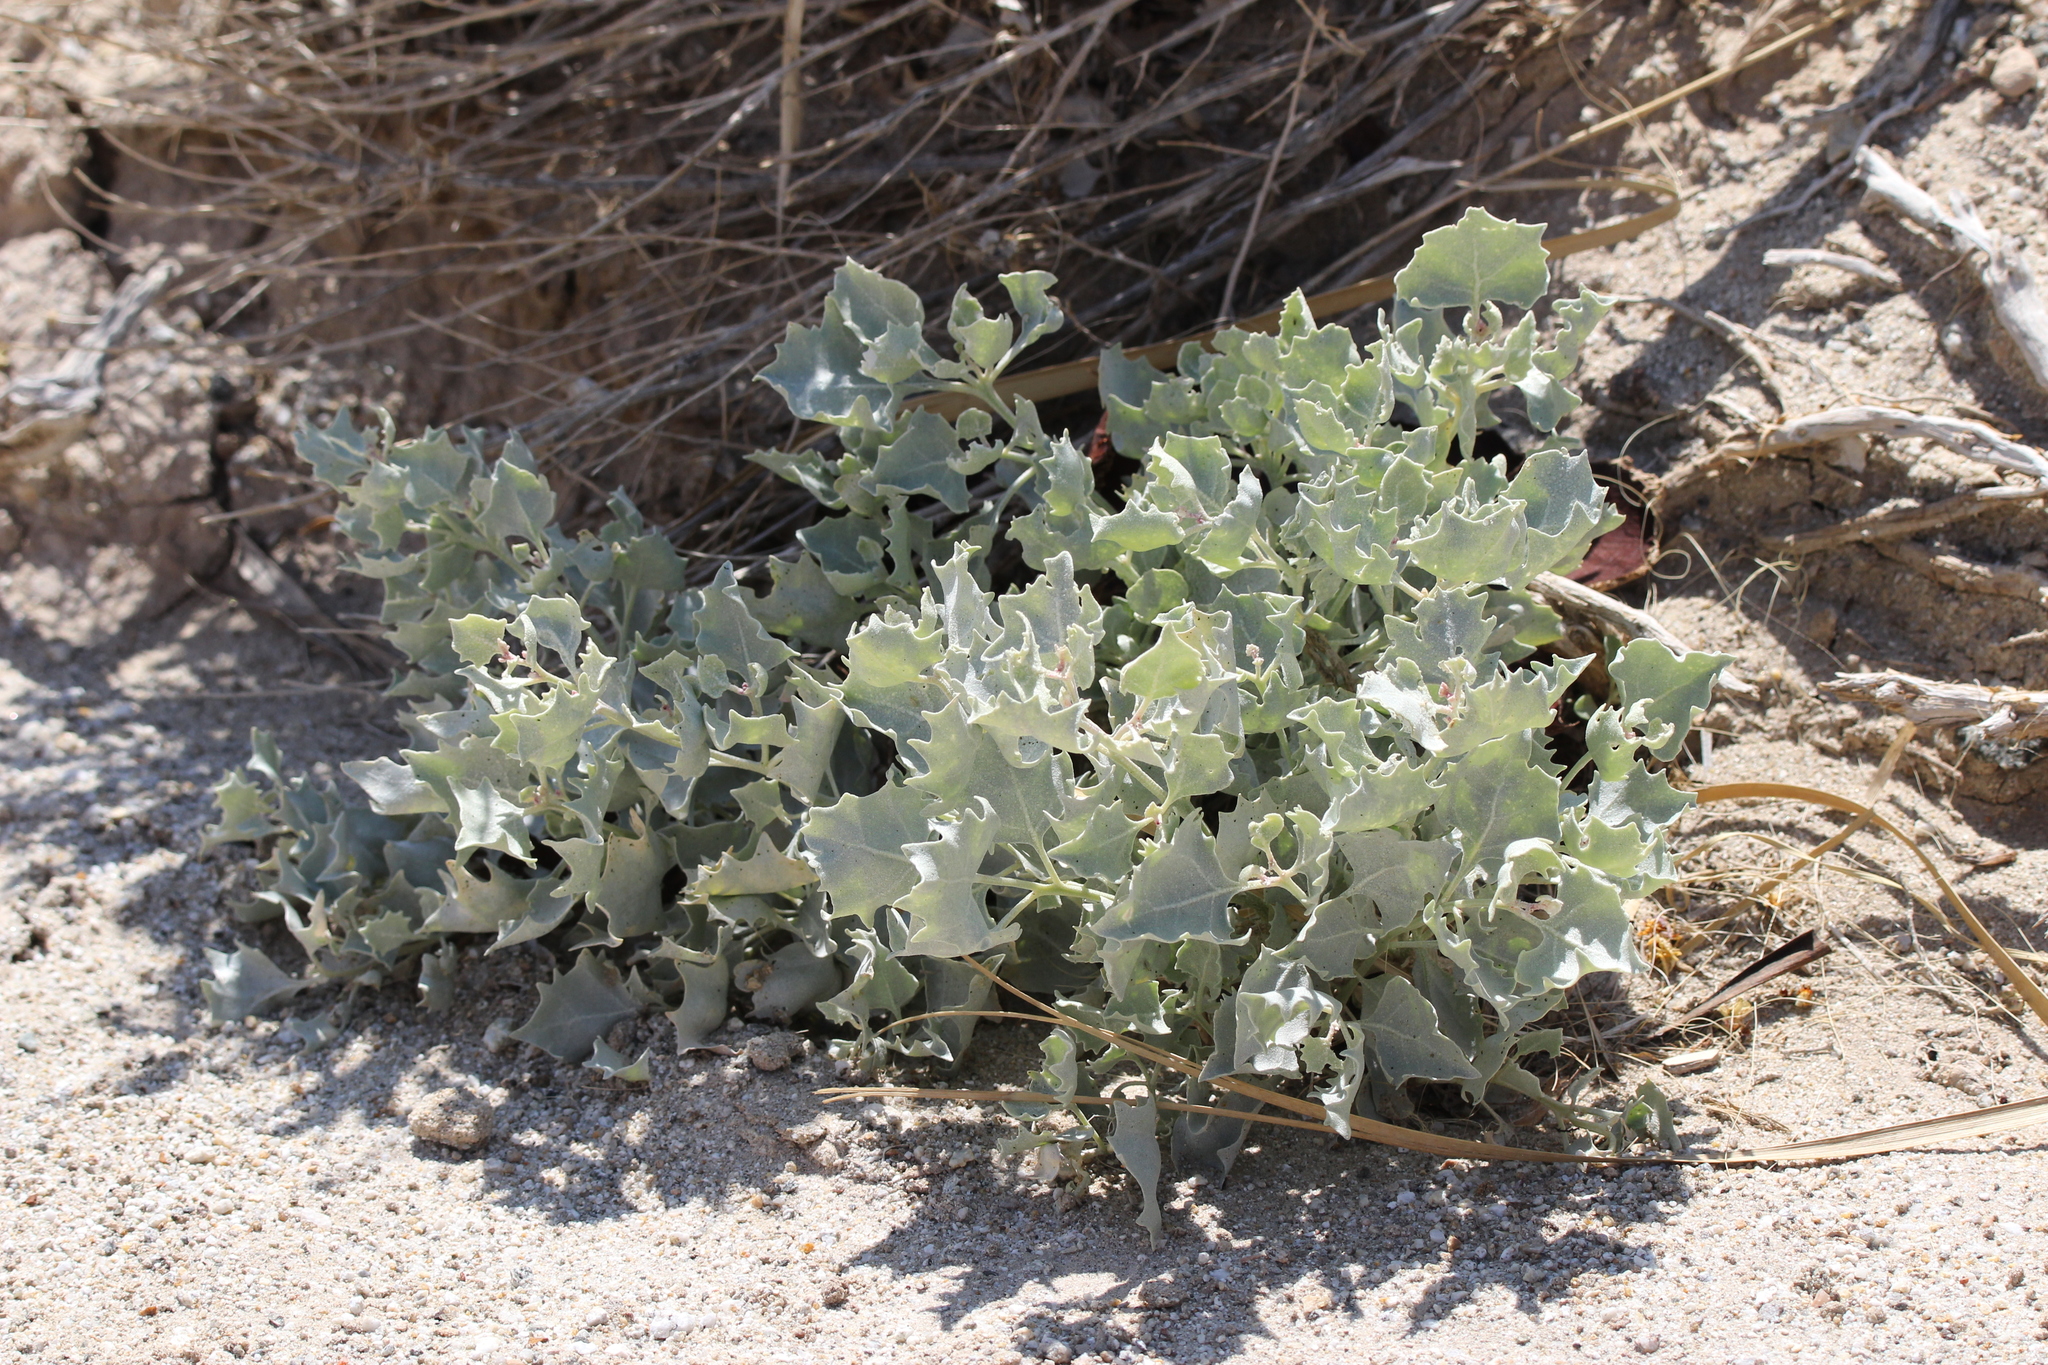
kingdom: Plantae
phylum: Tracheophyta
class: Magnoliopsida
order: Caryophyllales
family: Amaranthaceae
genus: Atriplex
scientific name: Atriplex hymenelytra
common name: Desert-holly
